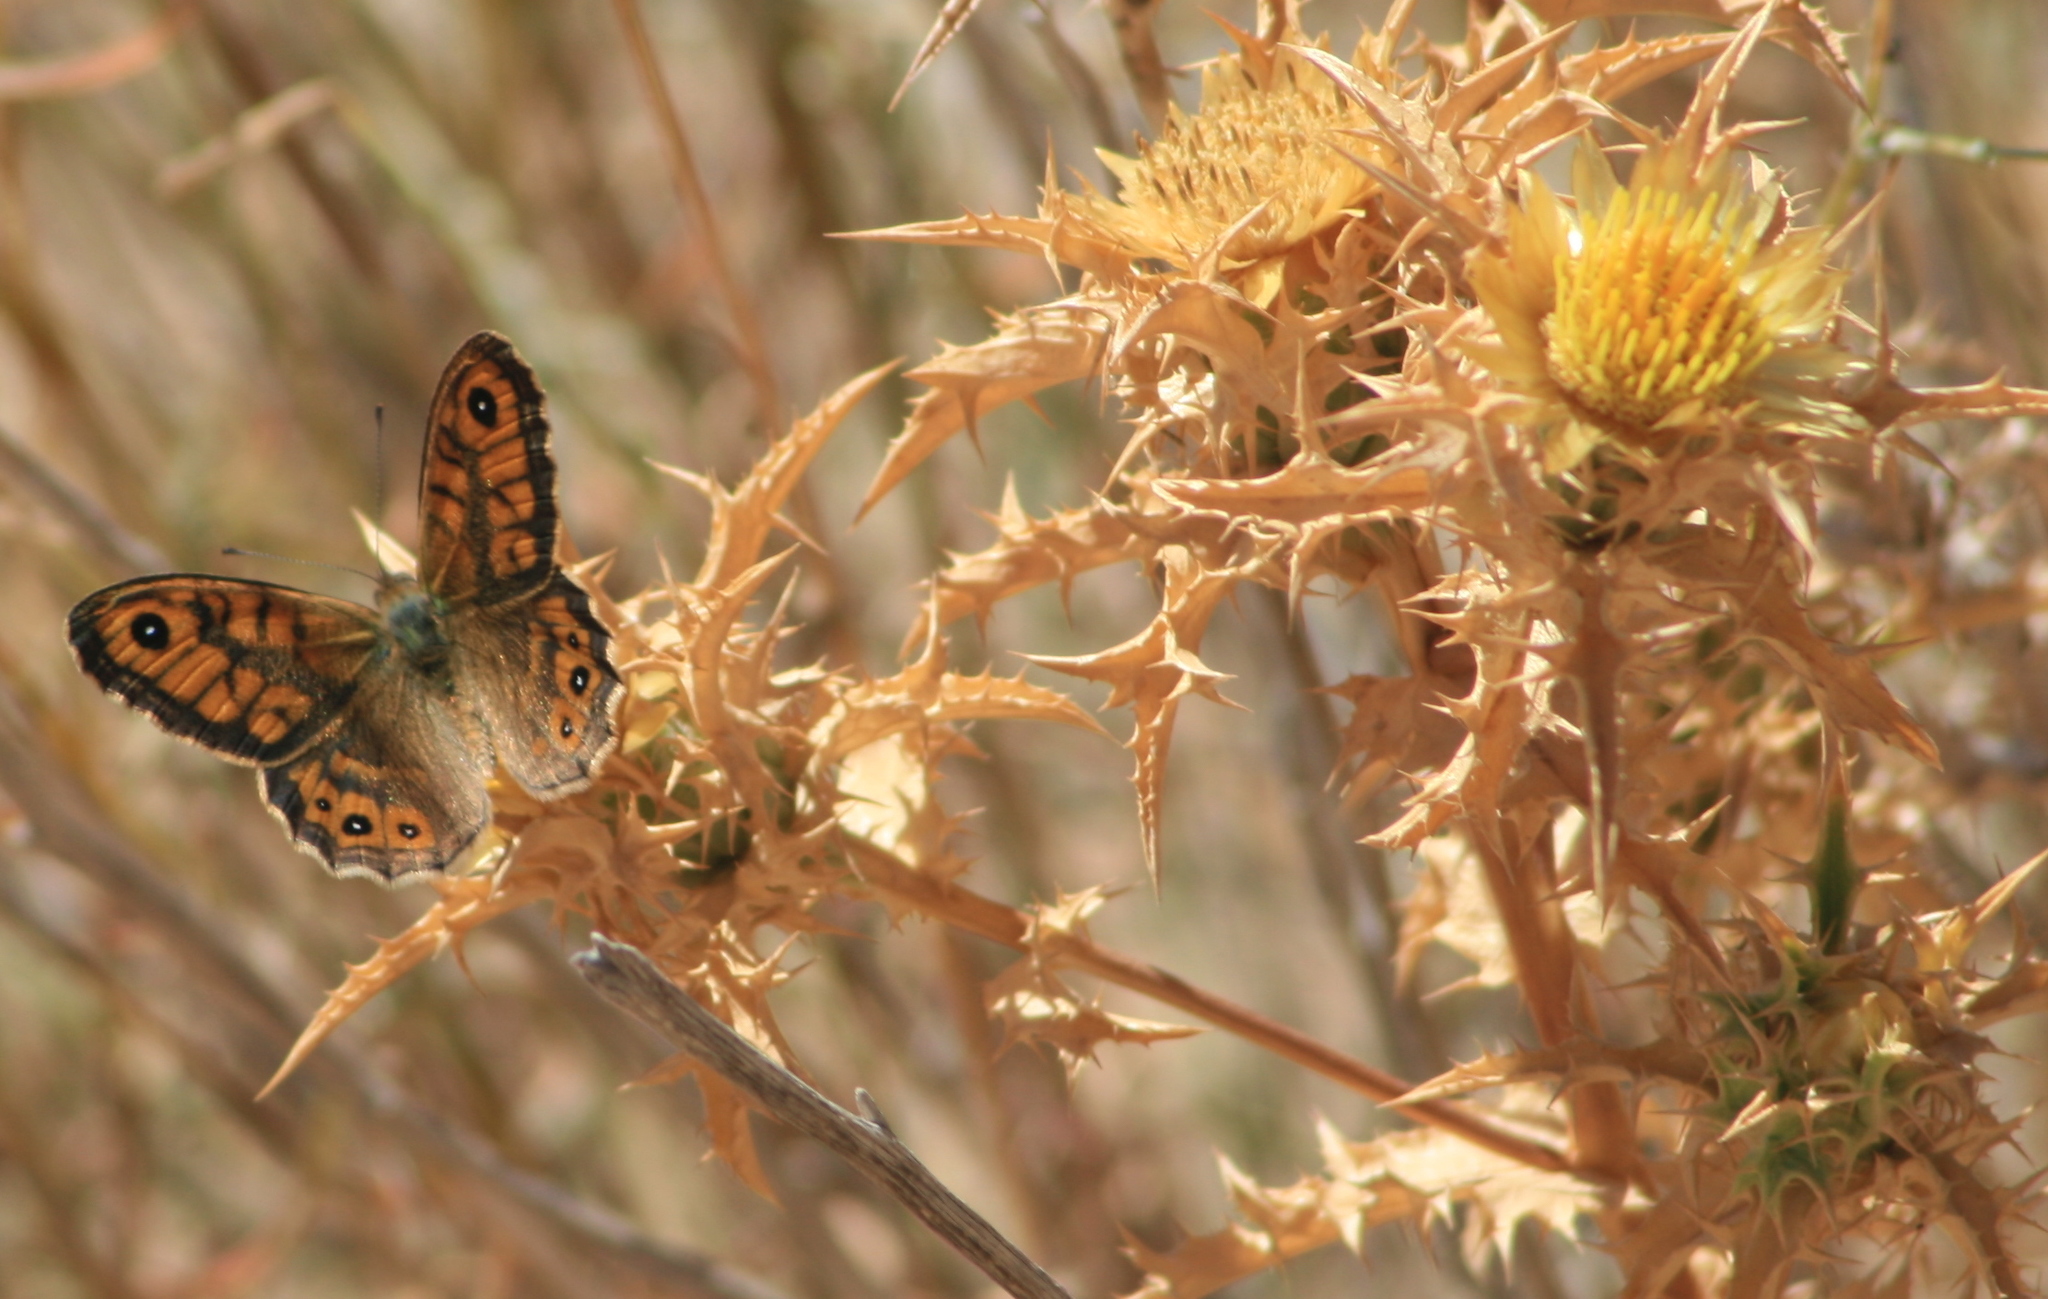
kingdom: Animalia
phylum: Arthropoda
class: Insecta
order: Lepidoptera
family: Nymphalidae
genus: Pararge
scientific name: Pararge Lasiommata megera
